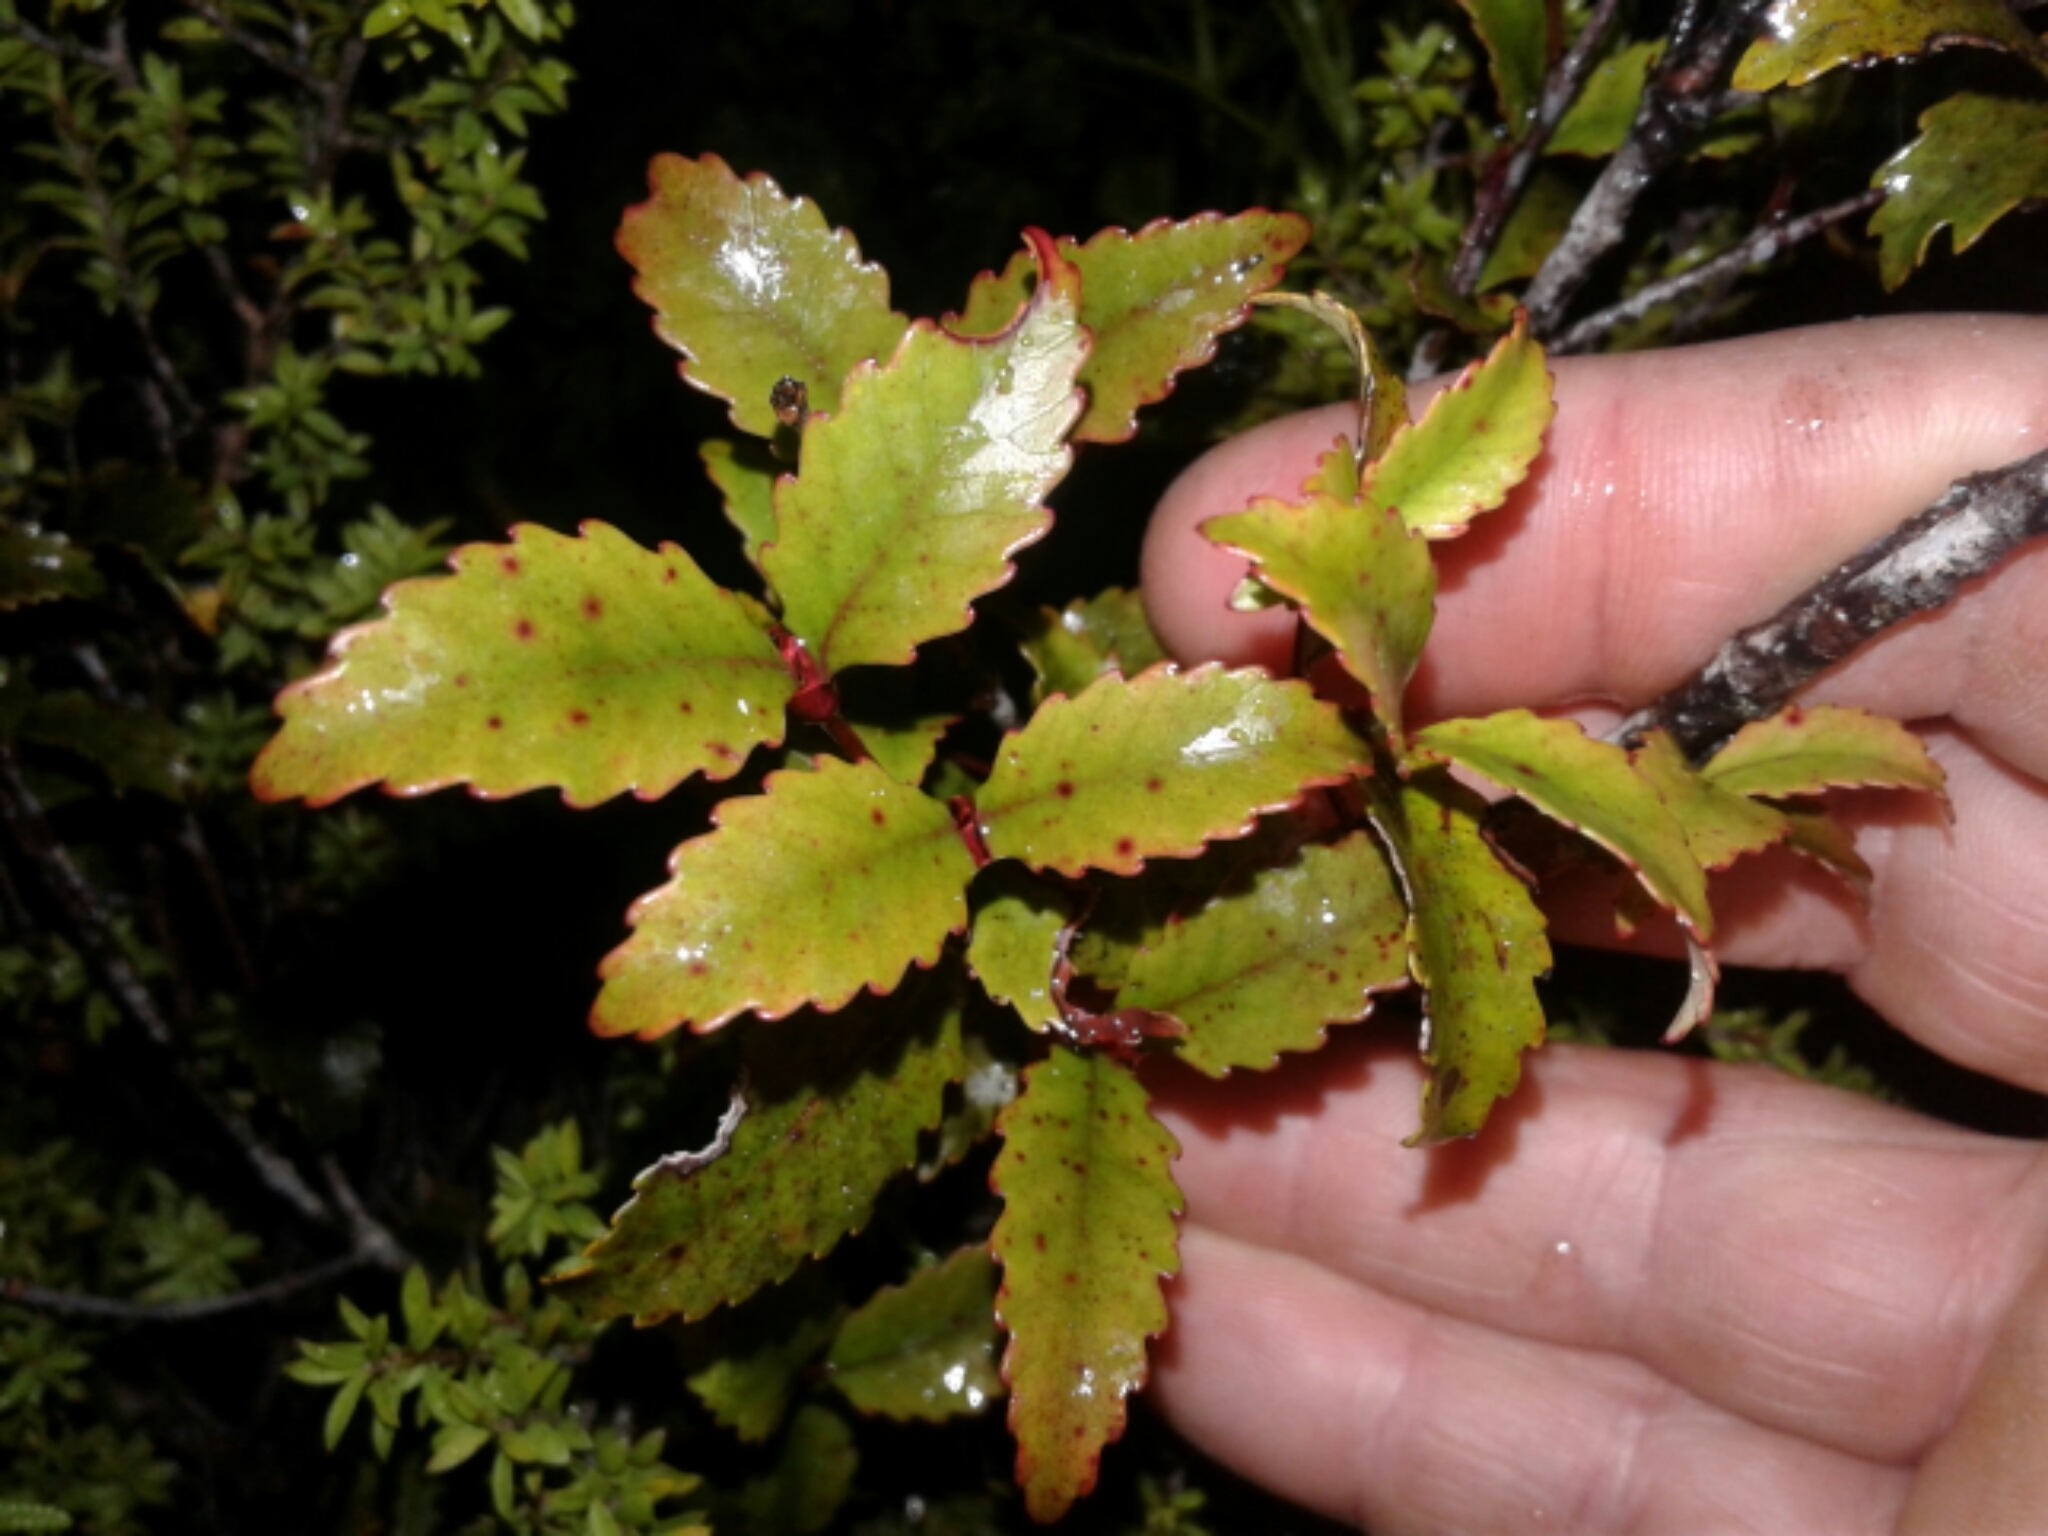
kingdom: Plantae
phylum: Tracheophyta
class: Magnoliopsida
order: Oxalidales
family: Cunoniaceae
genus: Pterophylla
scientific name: Pterophylla racemosa
